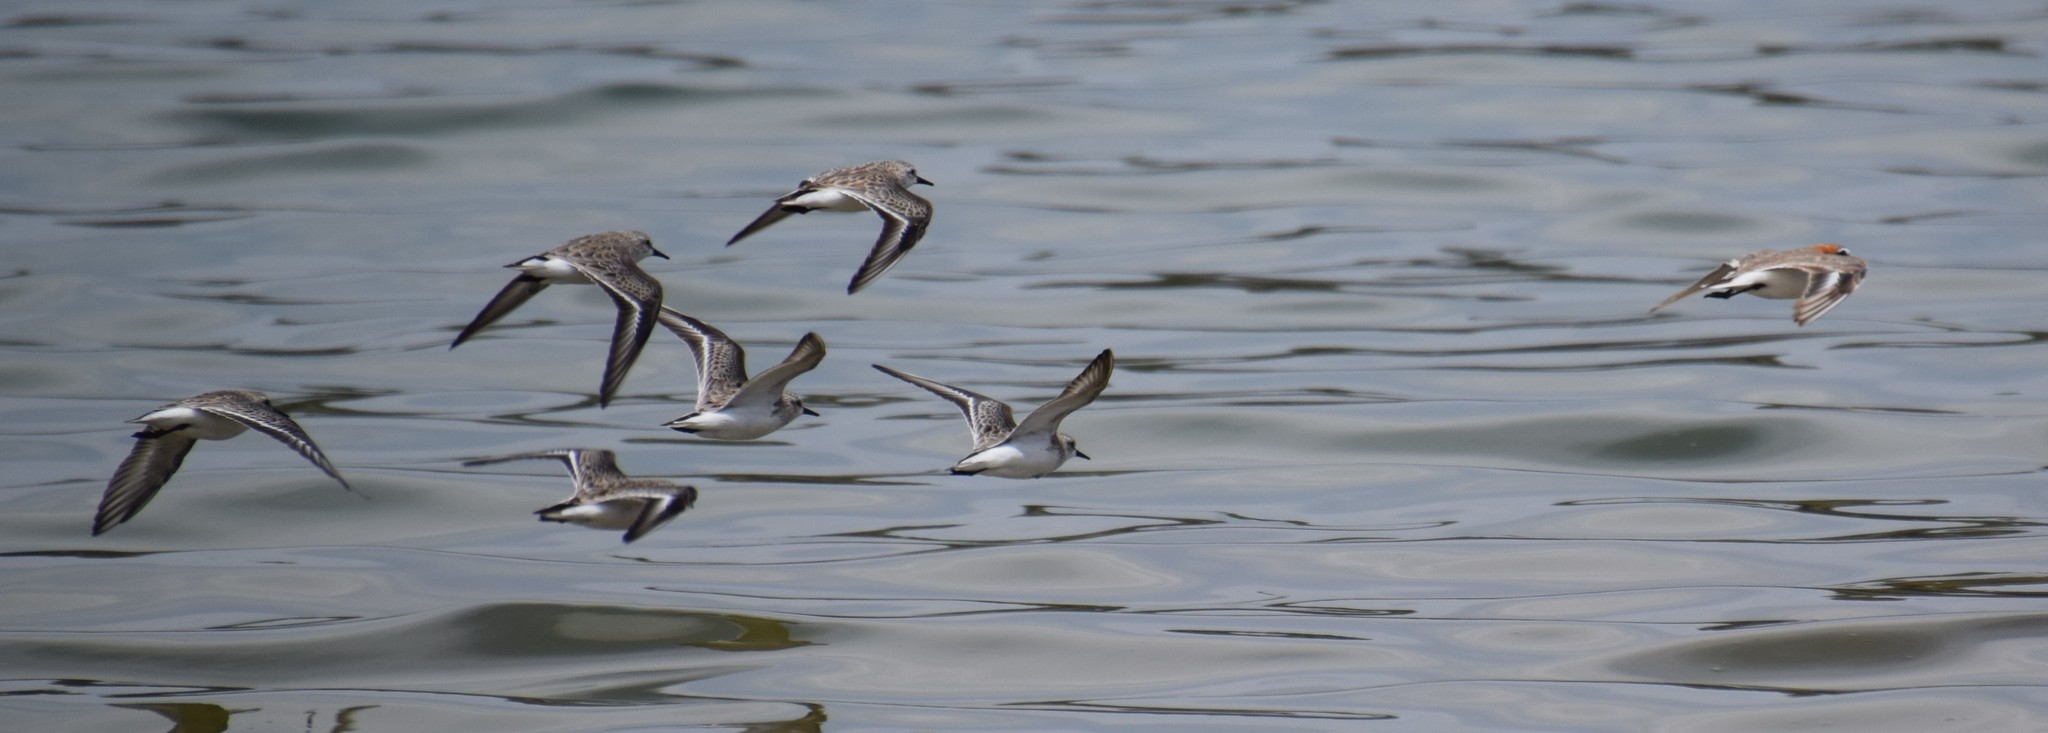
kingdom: Animalia
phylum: Chordata
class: Aves
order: Charadriiformes
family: Charadriidae
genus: Anarhynchus
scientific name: Anarhynchus
